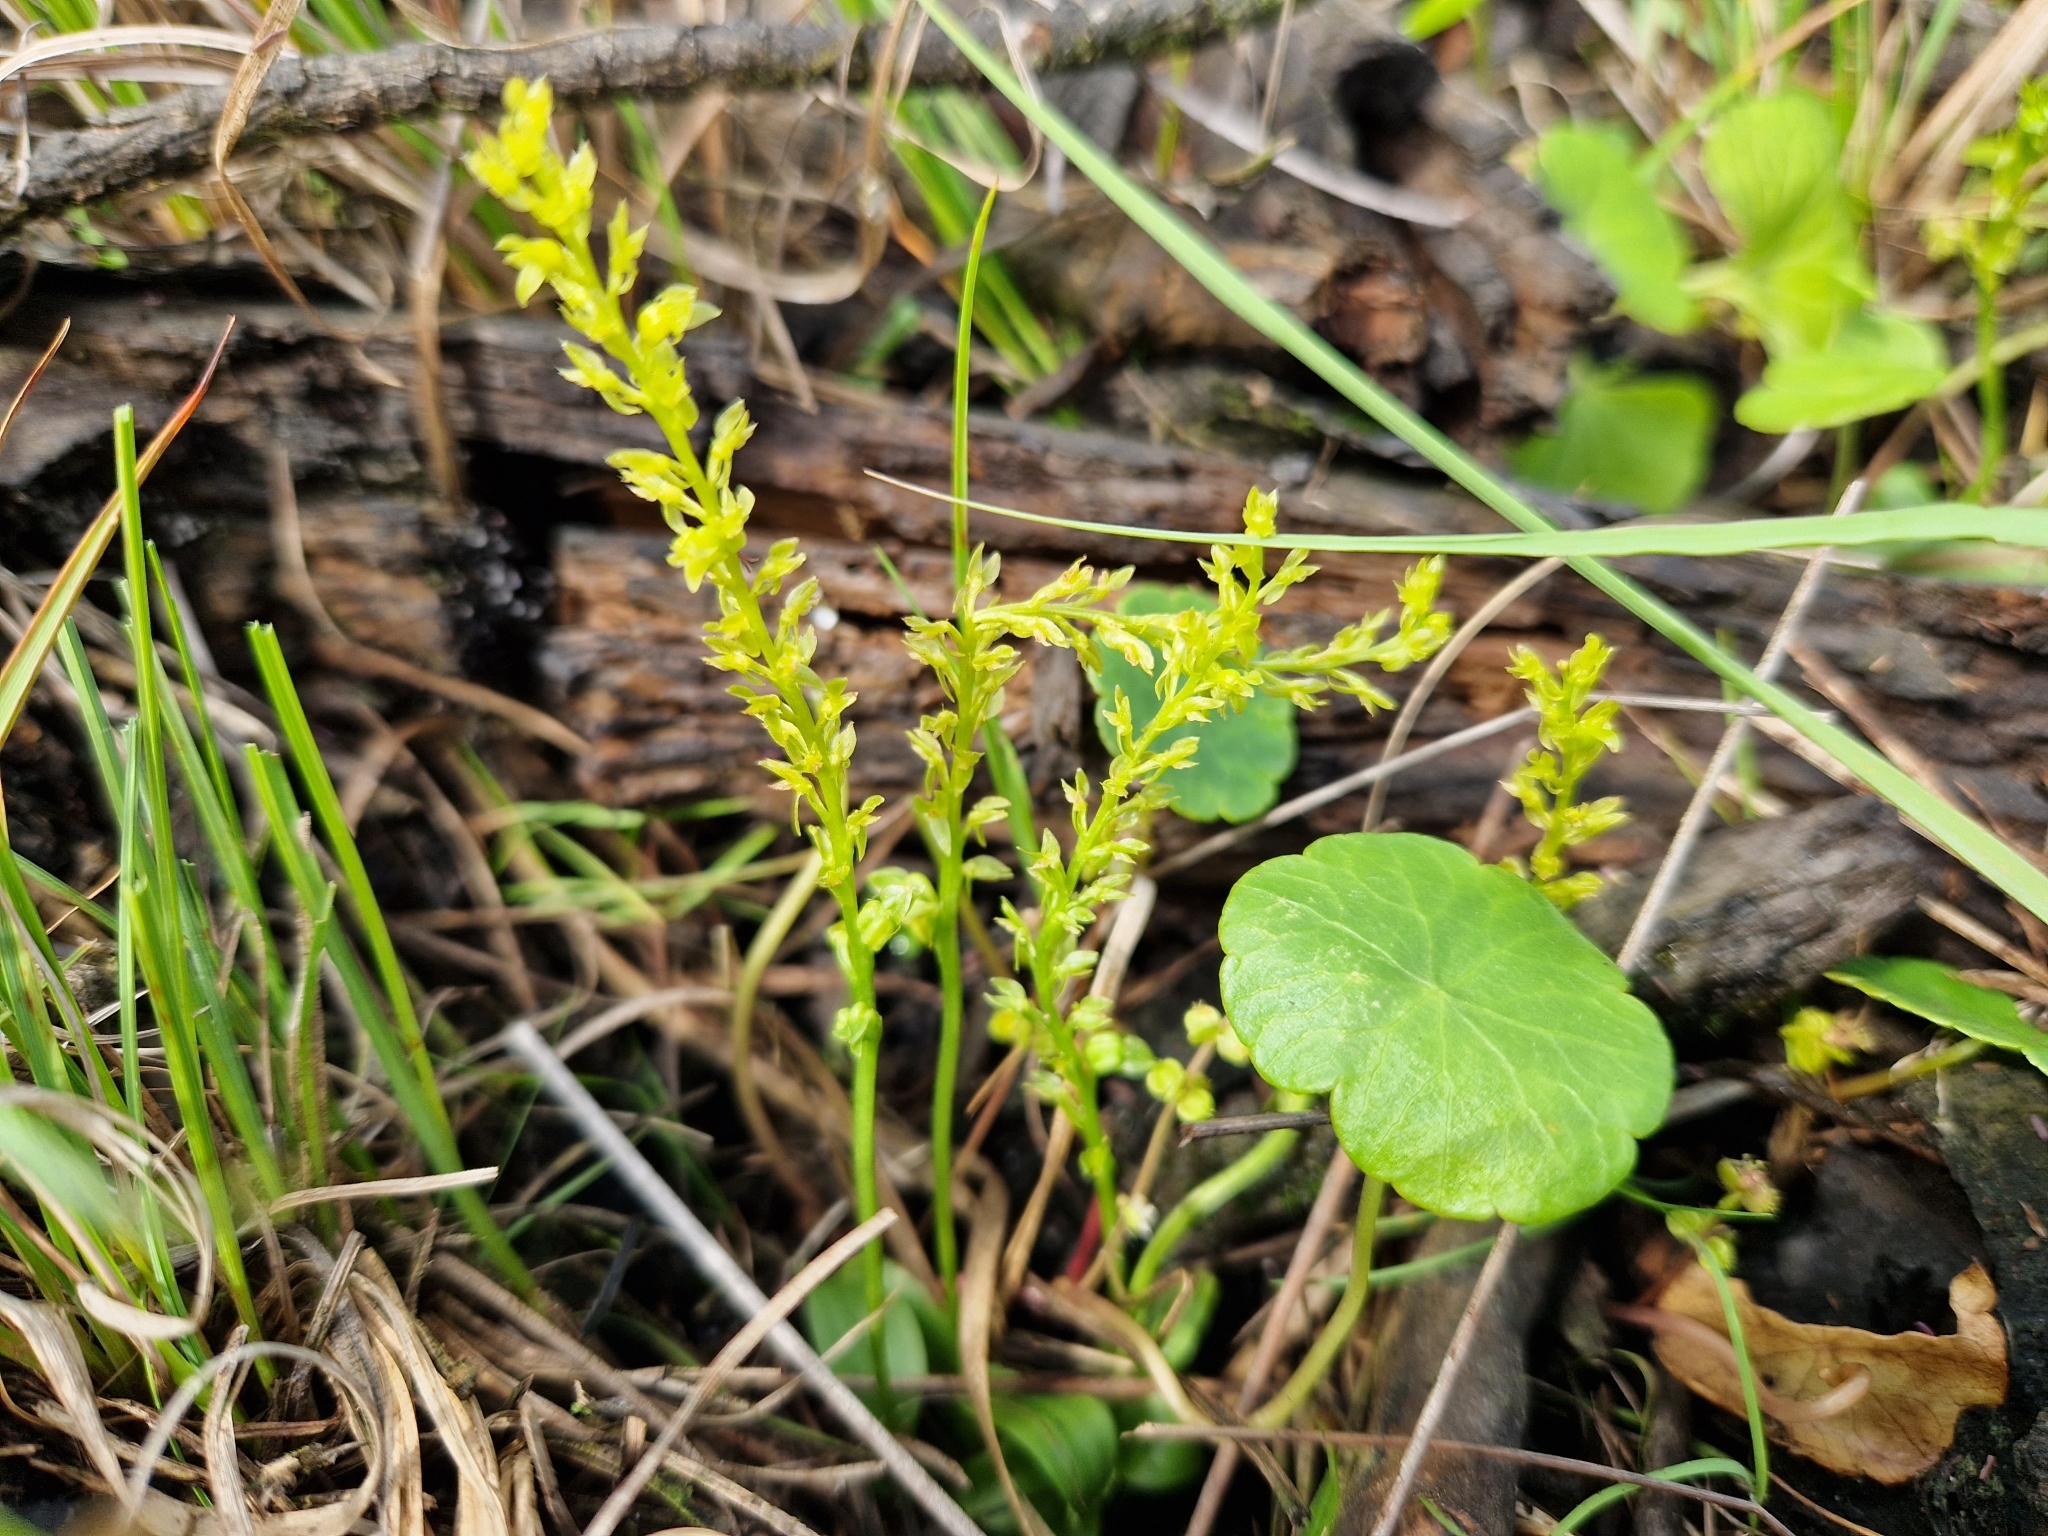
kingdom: Plantae
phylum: Tracheophyta
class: Liliopsida
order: Asparagales
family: Orchidaceae
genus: Hammarbya
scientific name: Hammarbya paludosa
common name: Bog orchid
